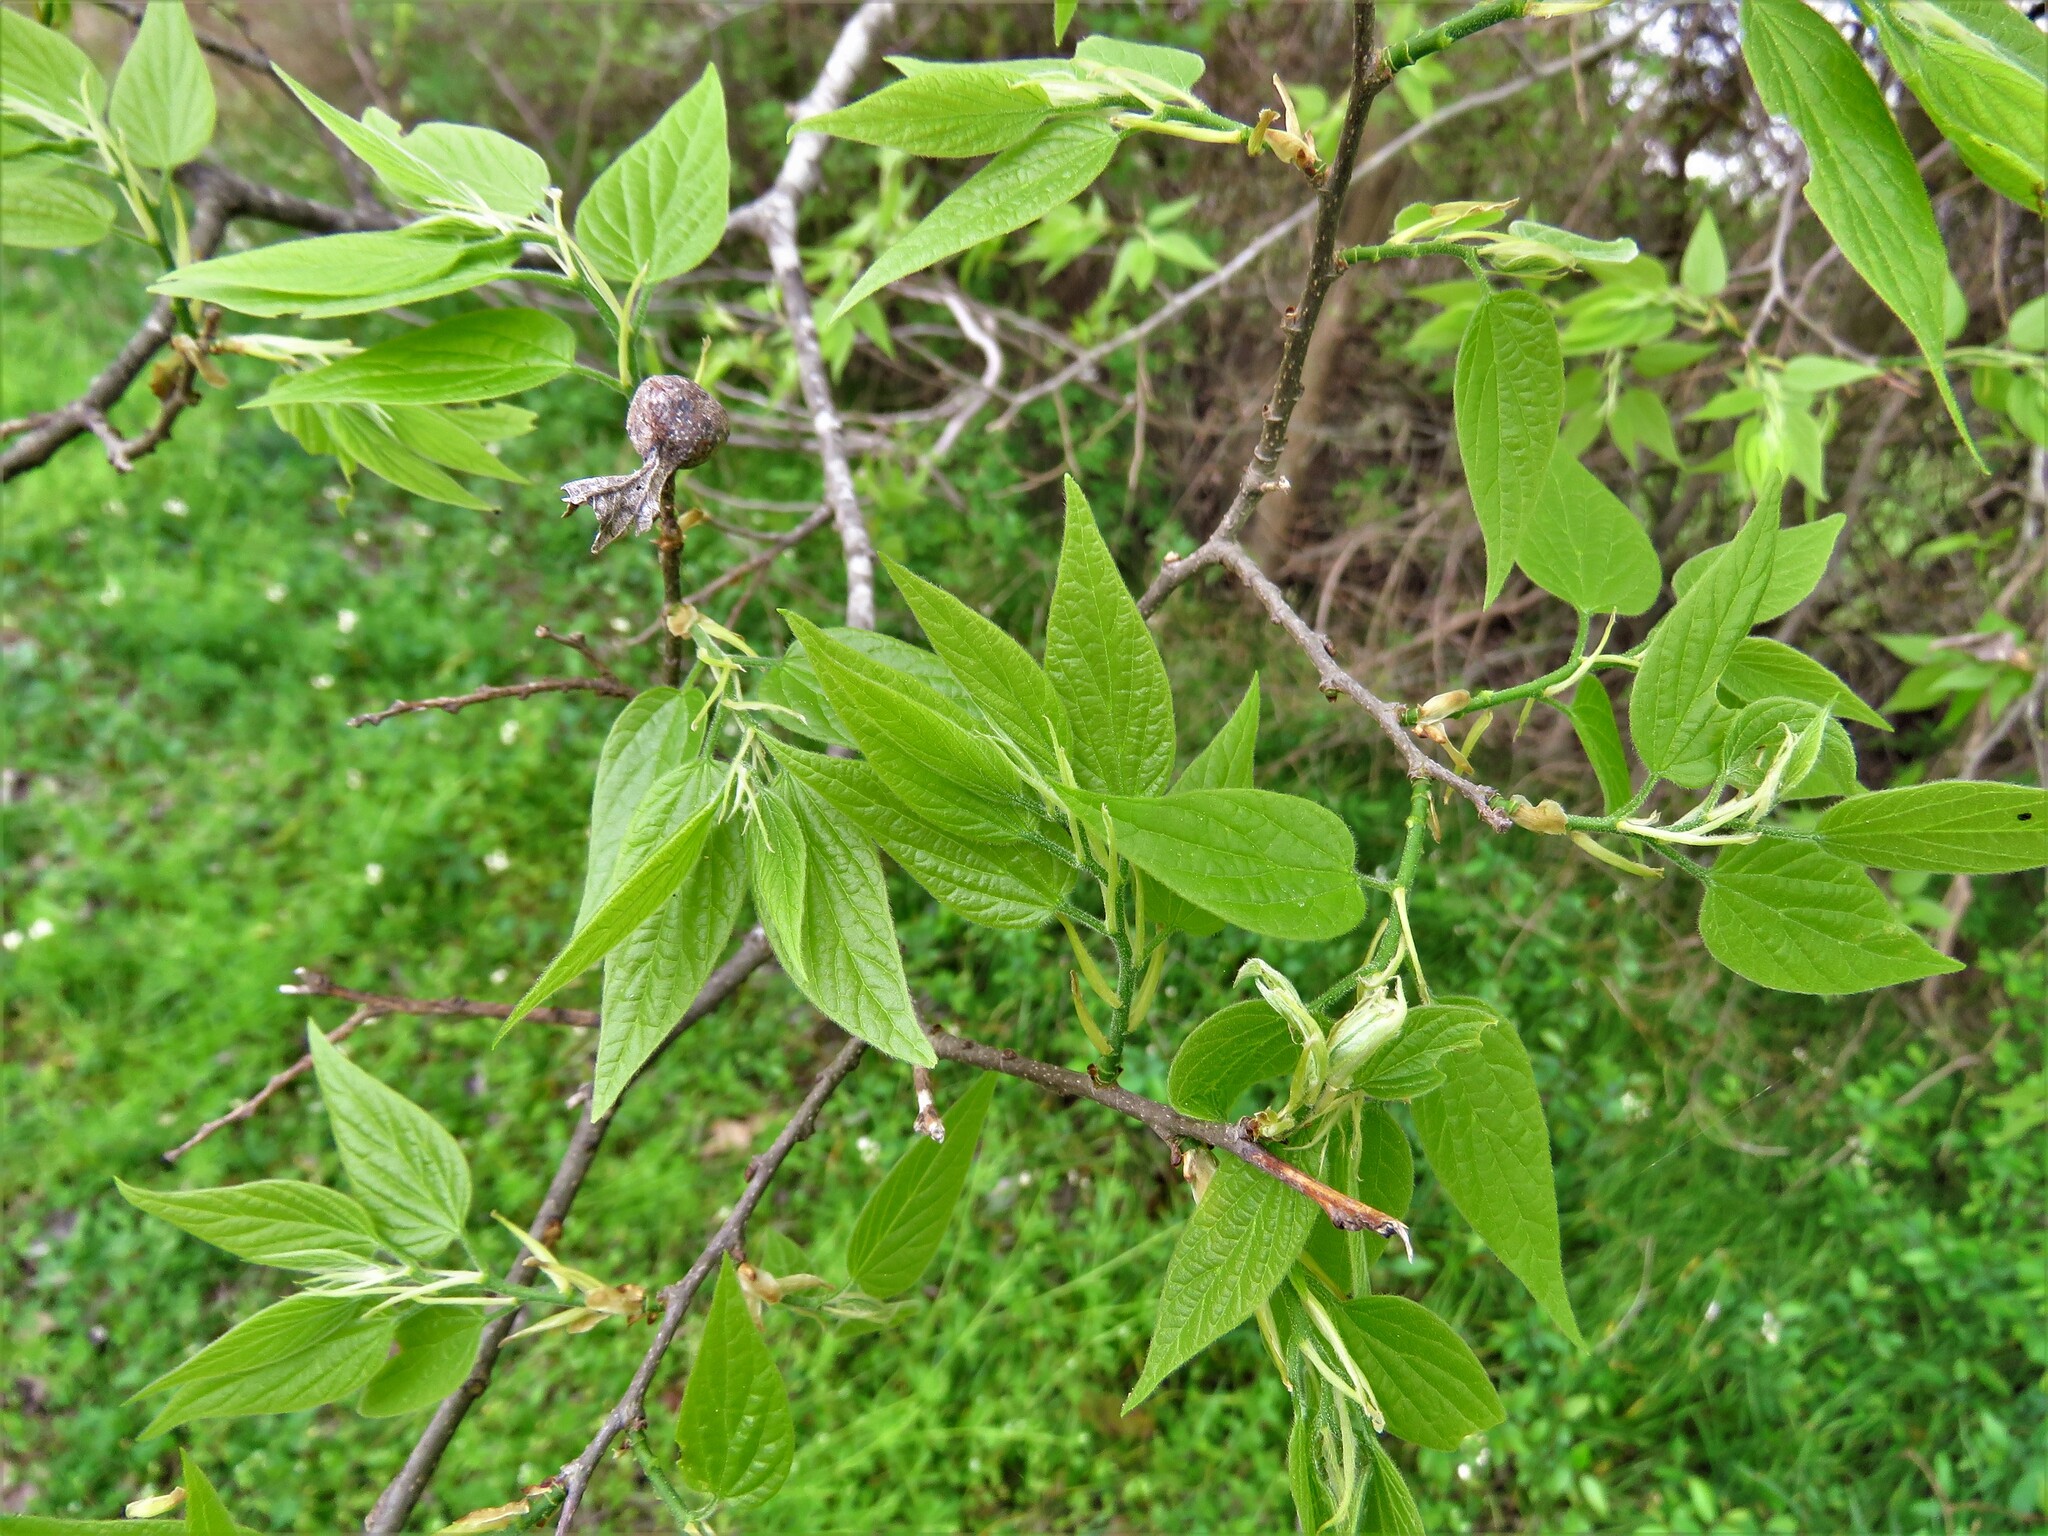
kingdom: Plantae
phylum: Tracheophyta
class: Magnoliopsida
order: Rosales
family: Cannabaceae
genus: Celtis
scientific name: Celtis laevigata
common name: Sugarberry
